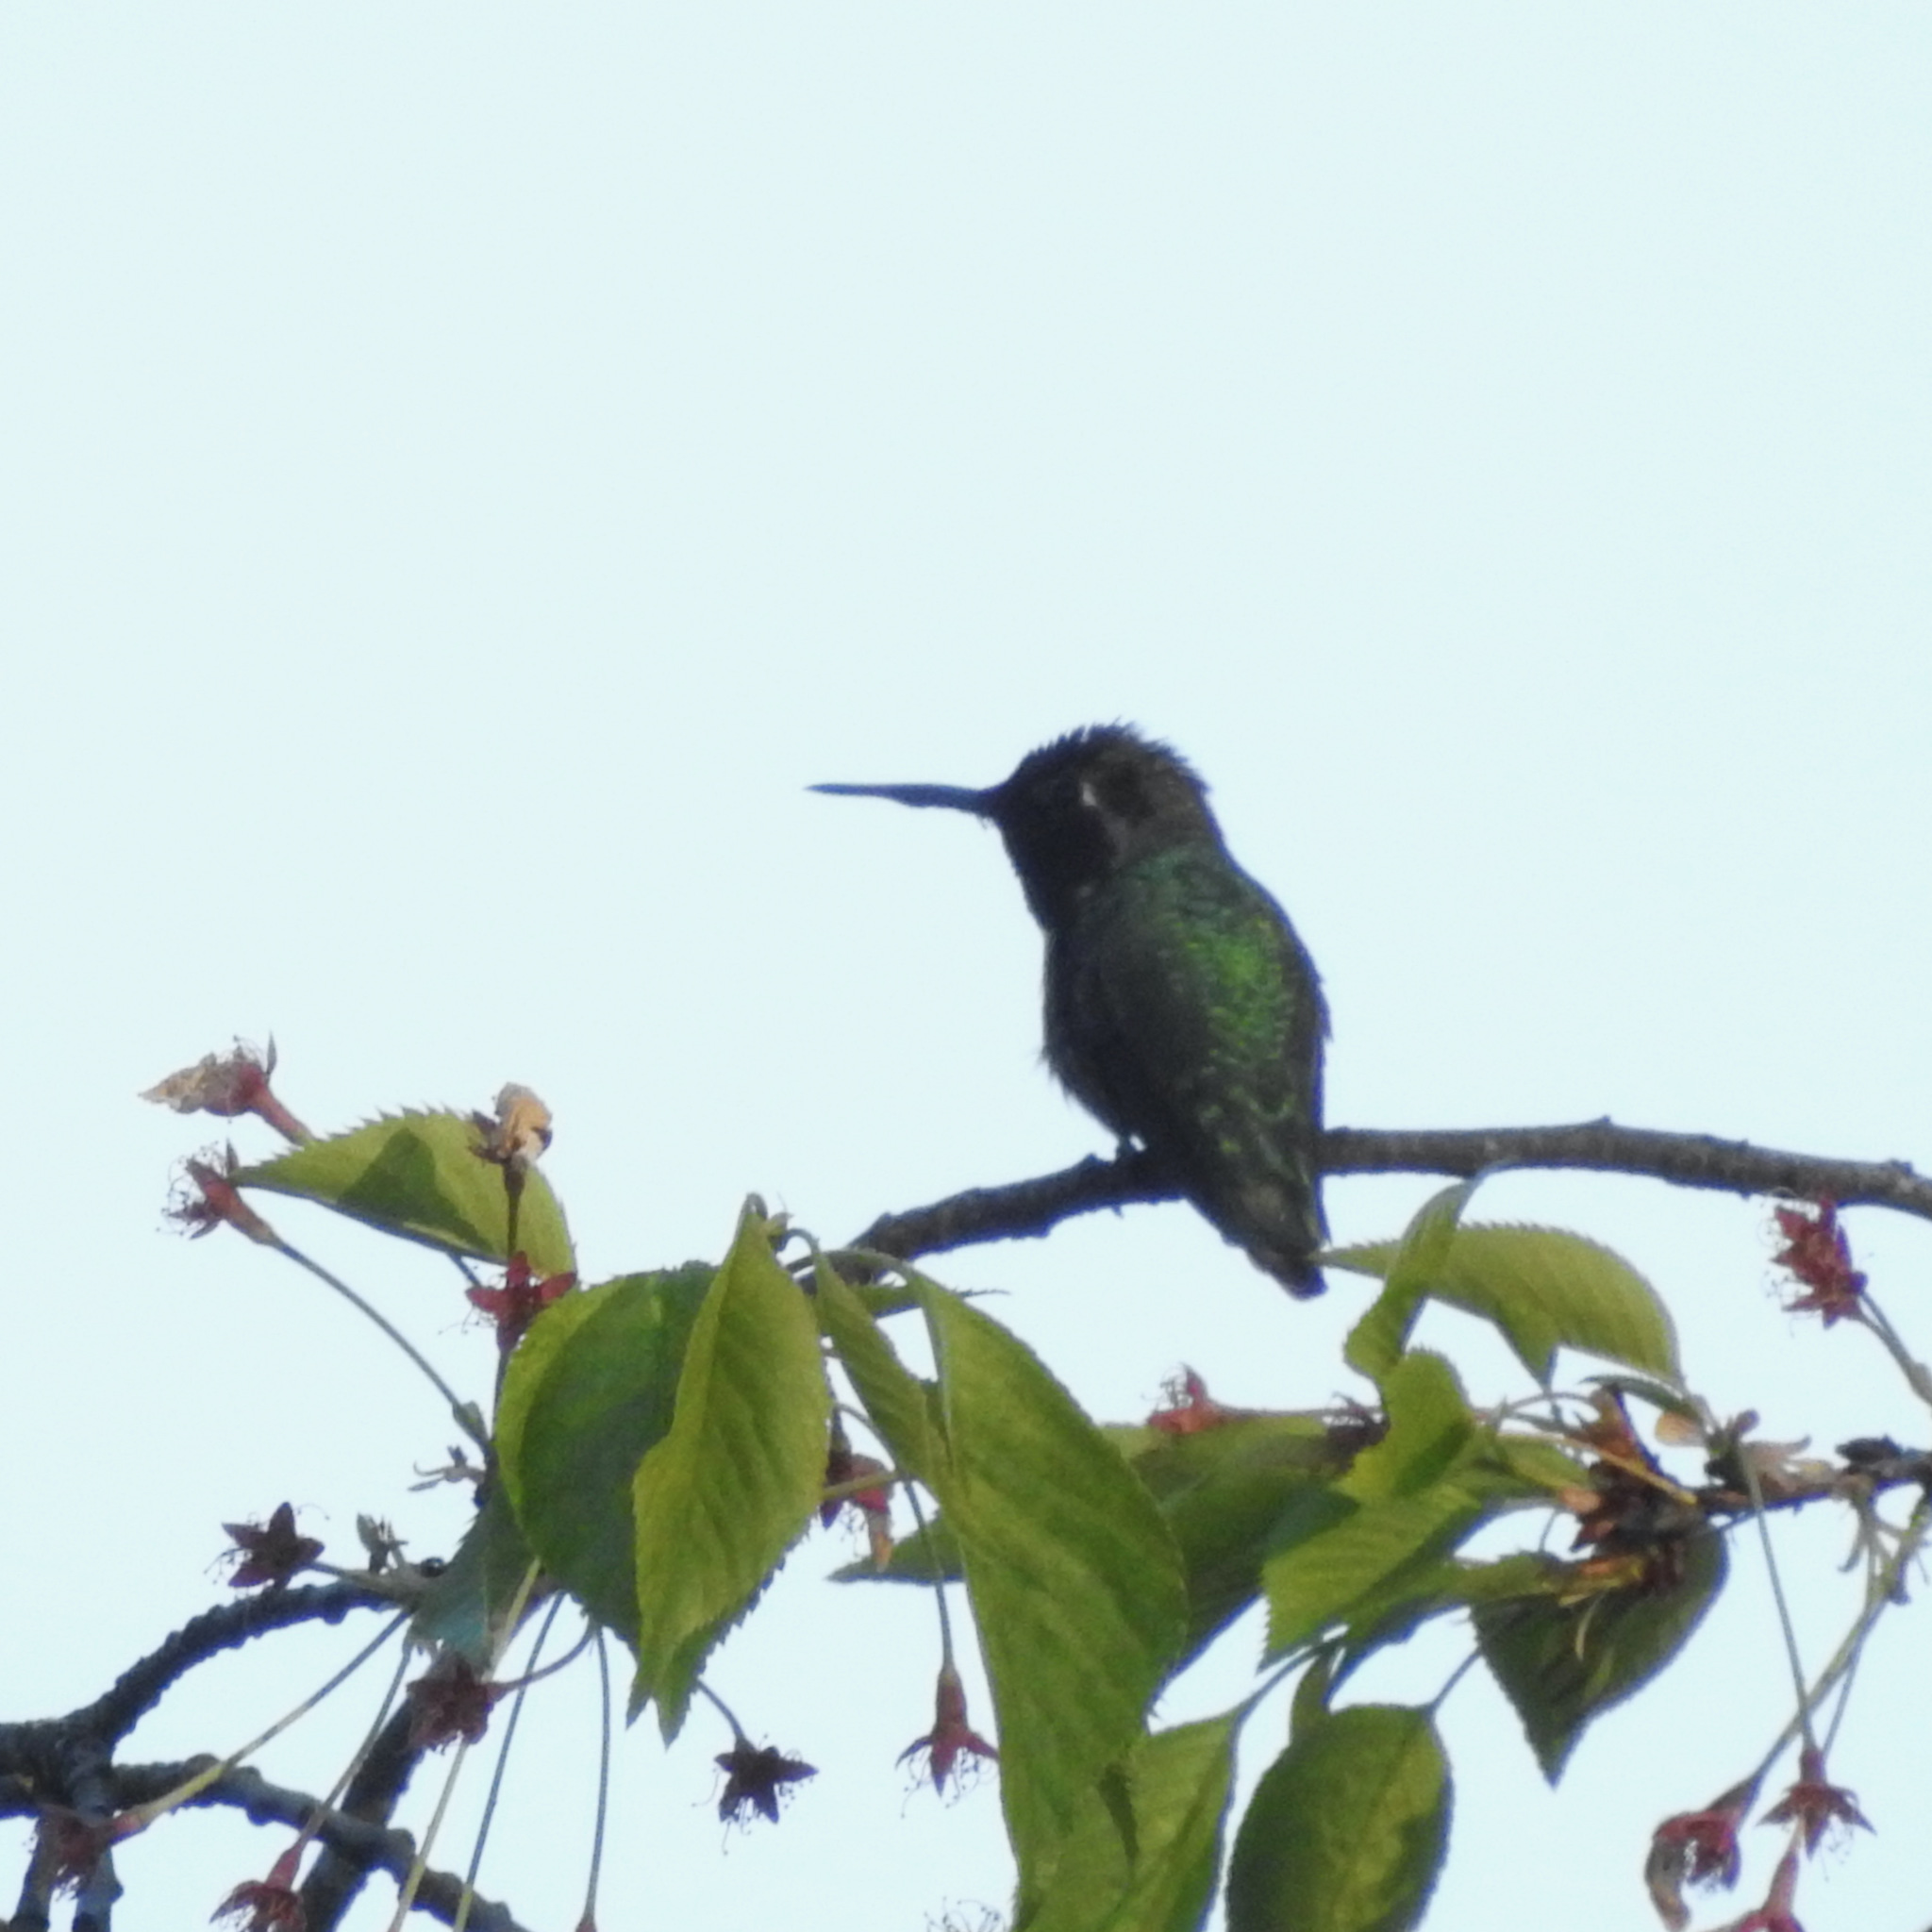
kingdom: Animalia
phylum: Chordata
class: Aves
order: Apodiformes
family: Trochilidae
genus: Calypte
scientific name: Calypte anna
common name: Anna's hummingbird
